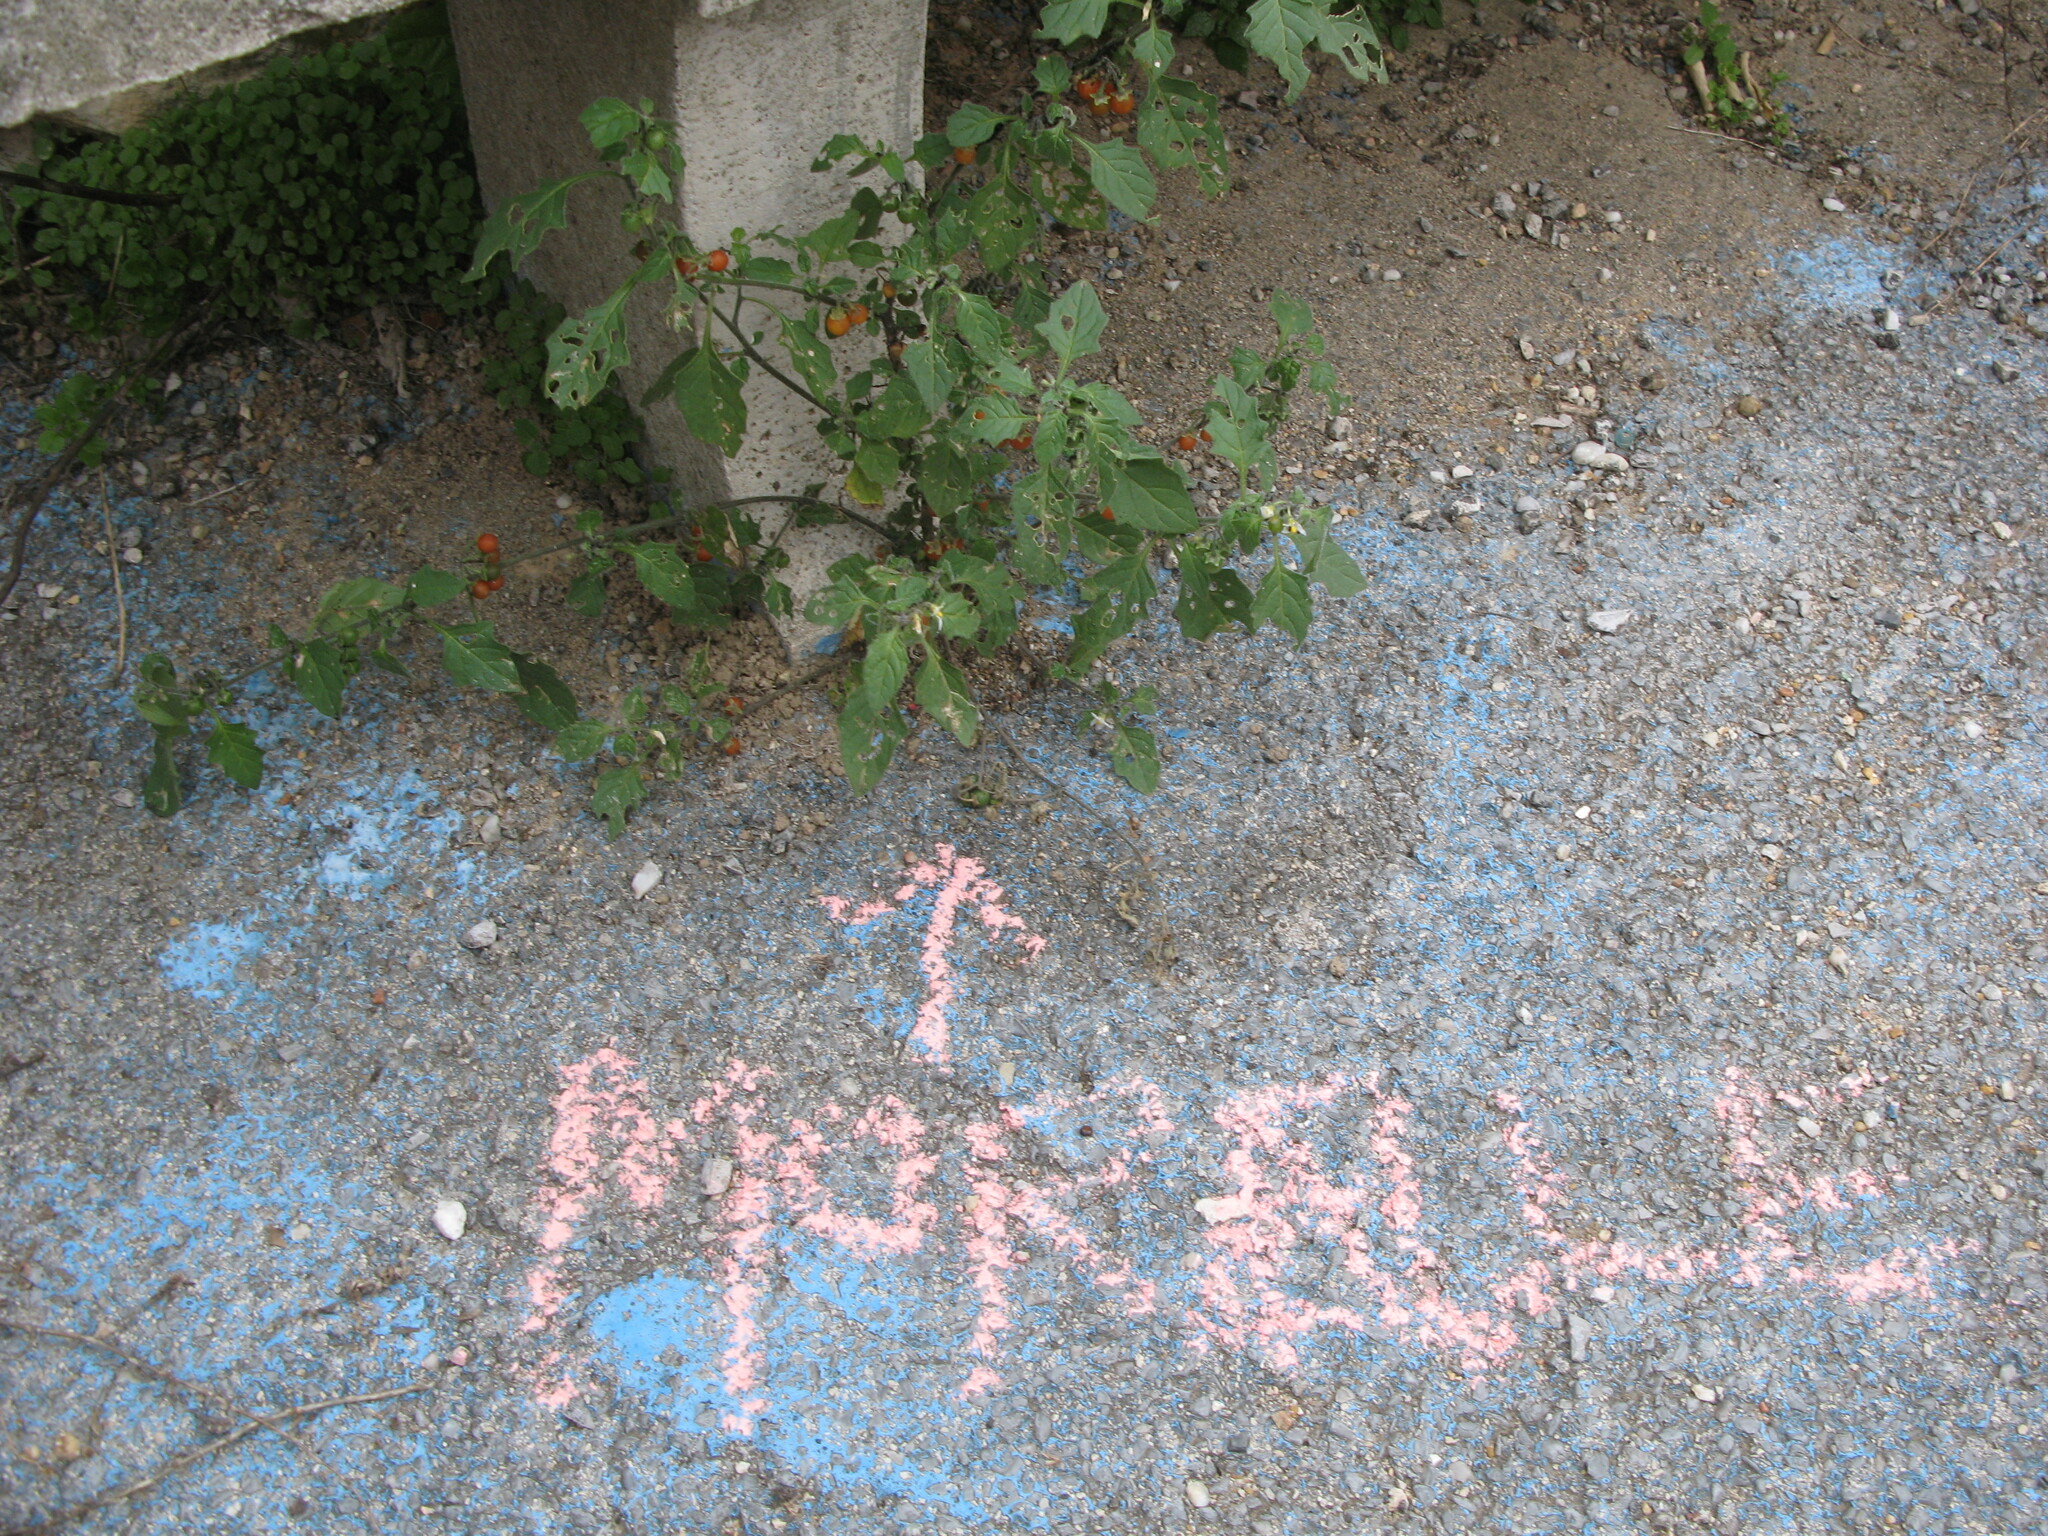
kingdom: Plantae
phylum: Tracheophyta
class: Magnoliopsida
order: Solanales
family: Solanaceae
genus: Solanum
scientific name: Solanum villosum
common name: Red nightshade
